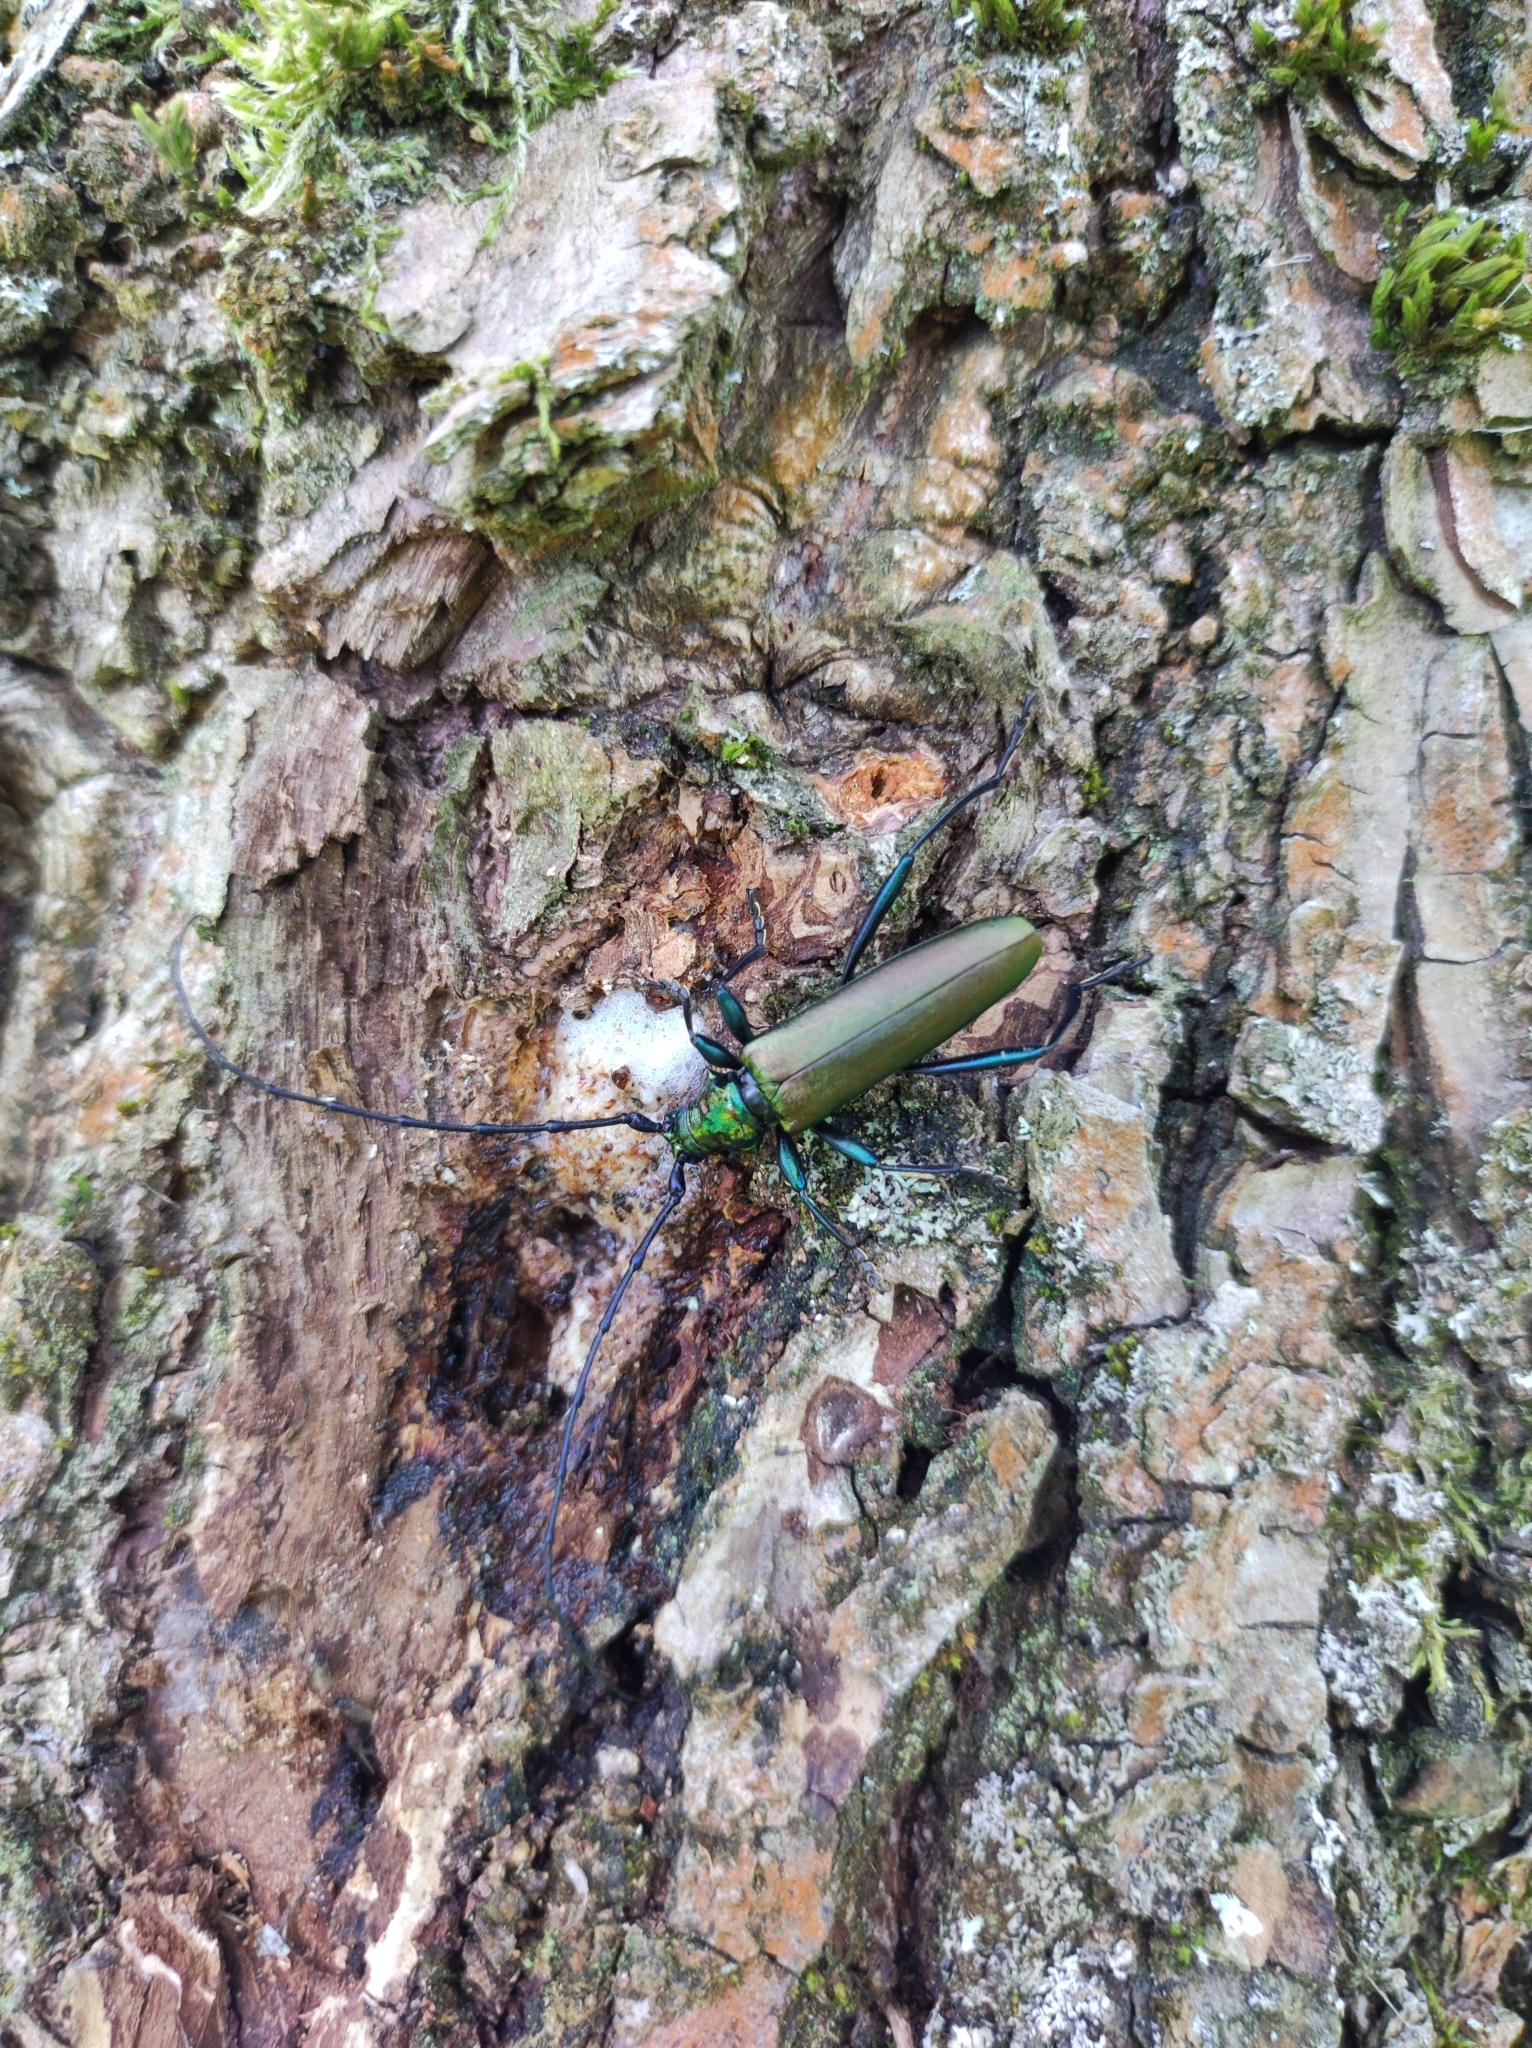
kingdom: Animalia
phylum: Arthropoda
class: Insecta
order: Coleoptera
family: Cerambycidae
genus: Aromia
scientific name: Aromia moschata
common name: Musk beetle
